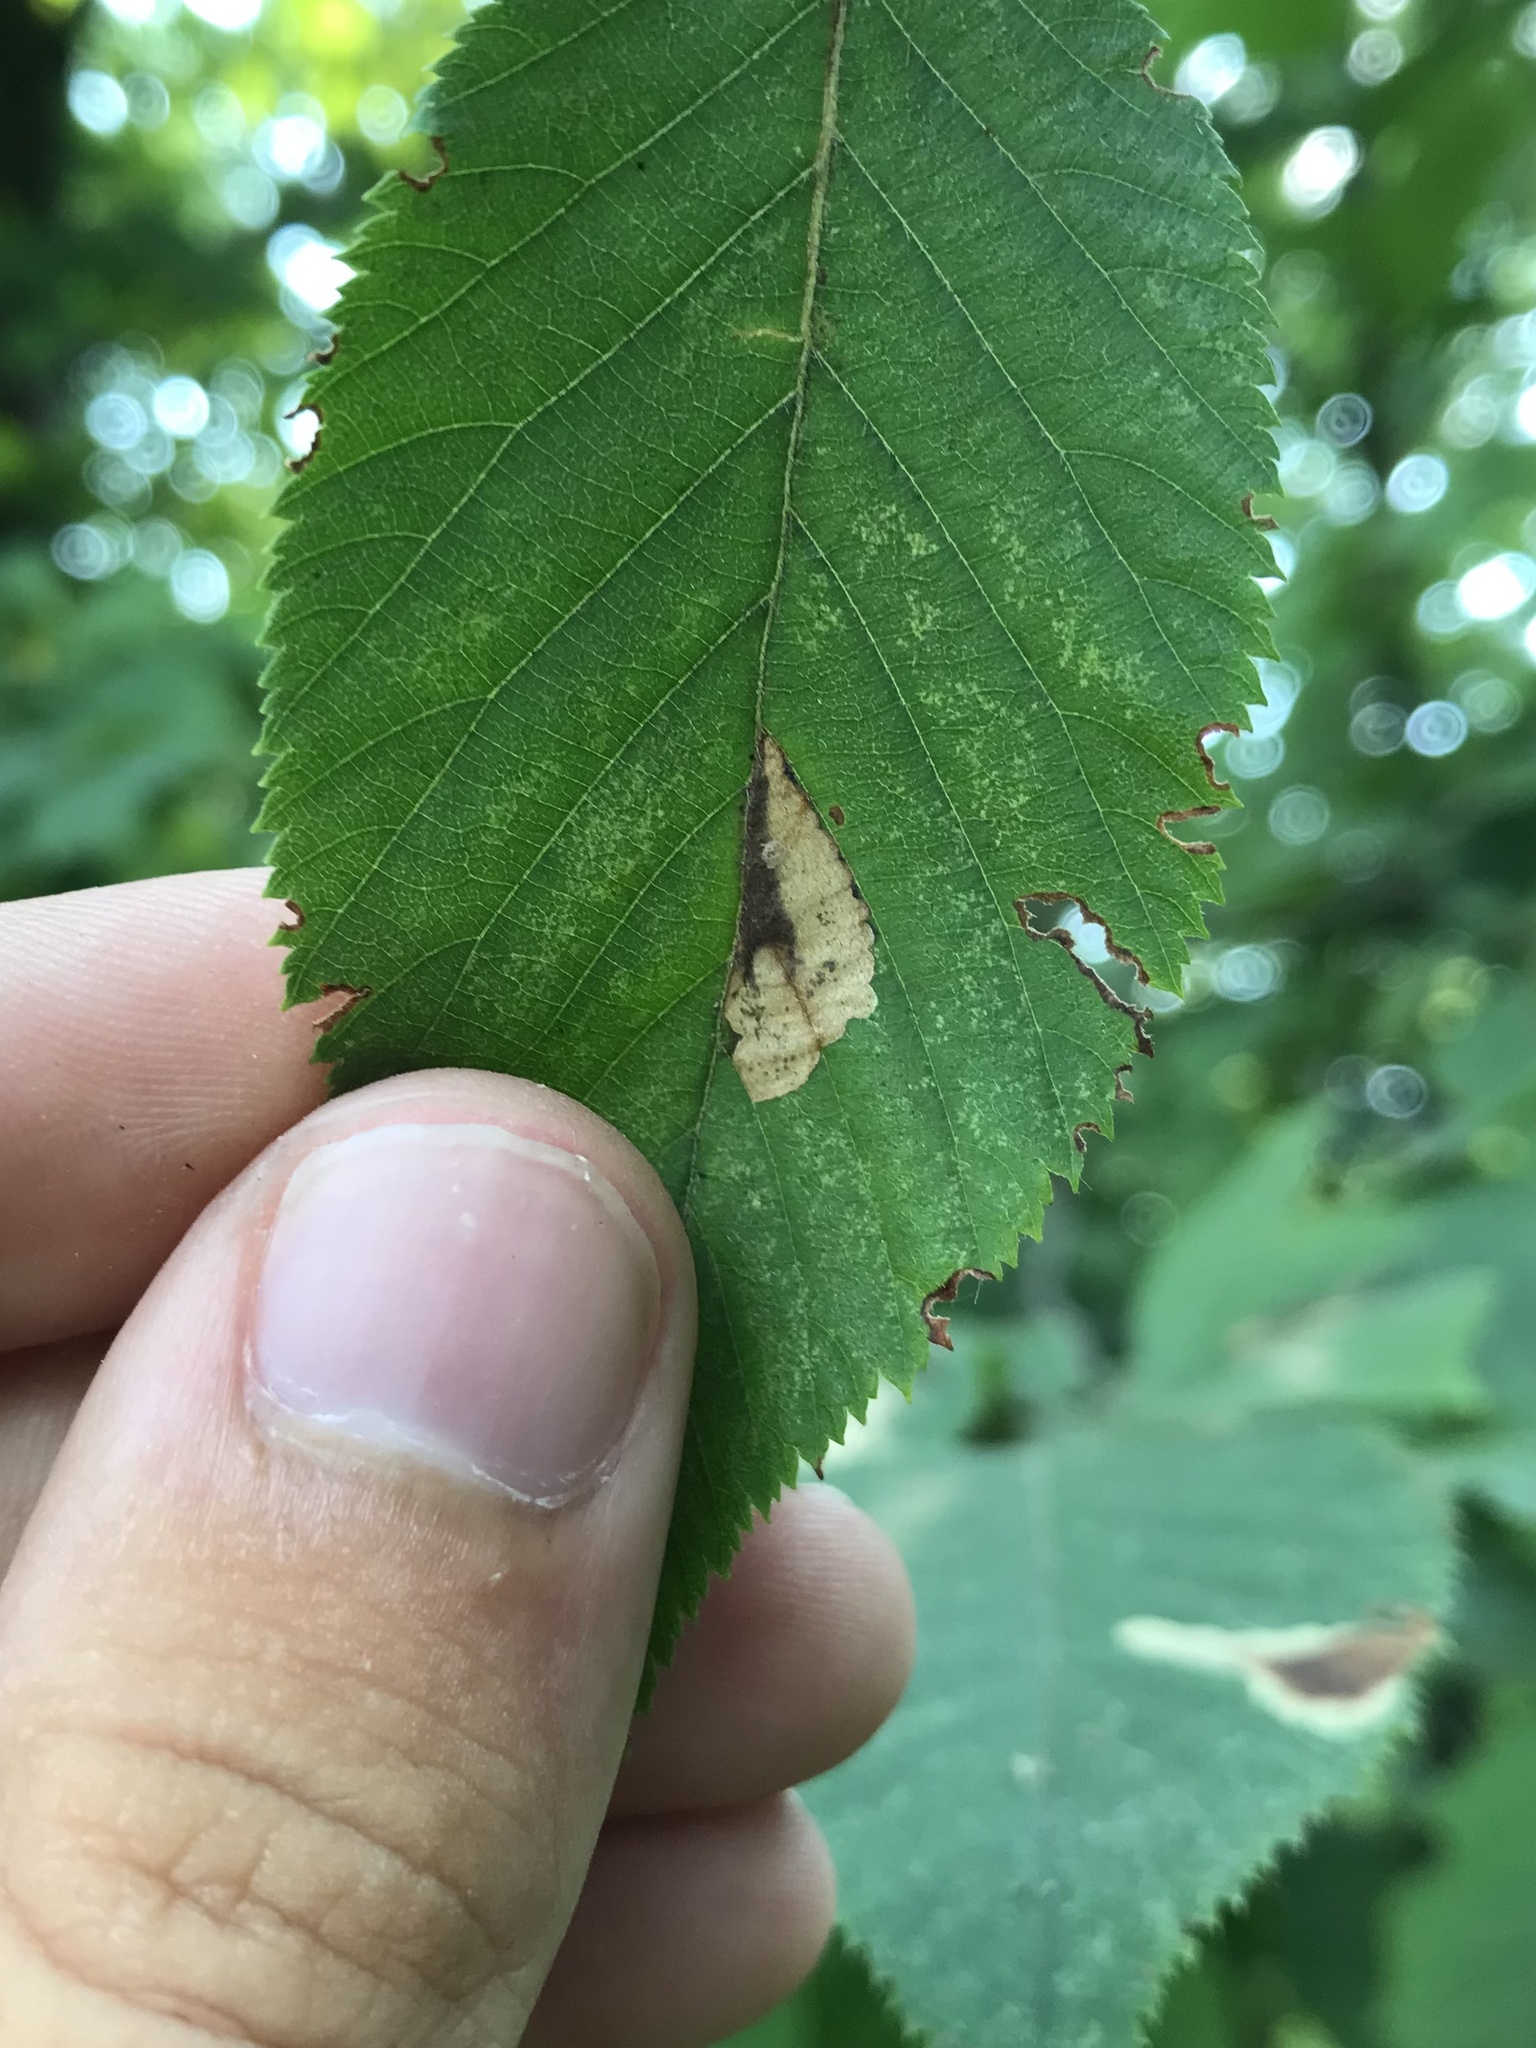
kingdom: Animalia
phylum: Arthropoda
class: Insecta
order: Lepidoptera
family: Cosmopterigidae
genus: Stilbosis
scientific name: Stilbosis ostryaeella
